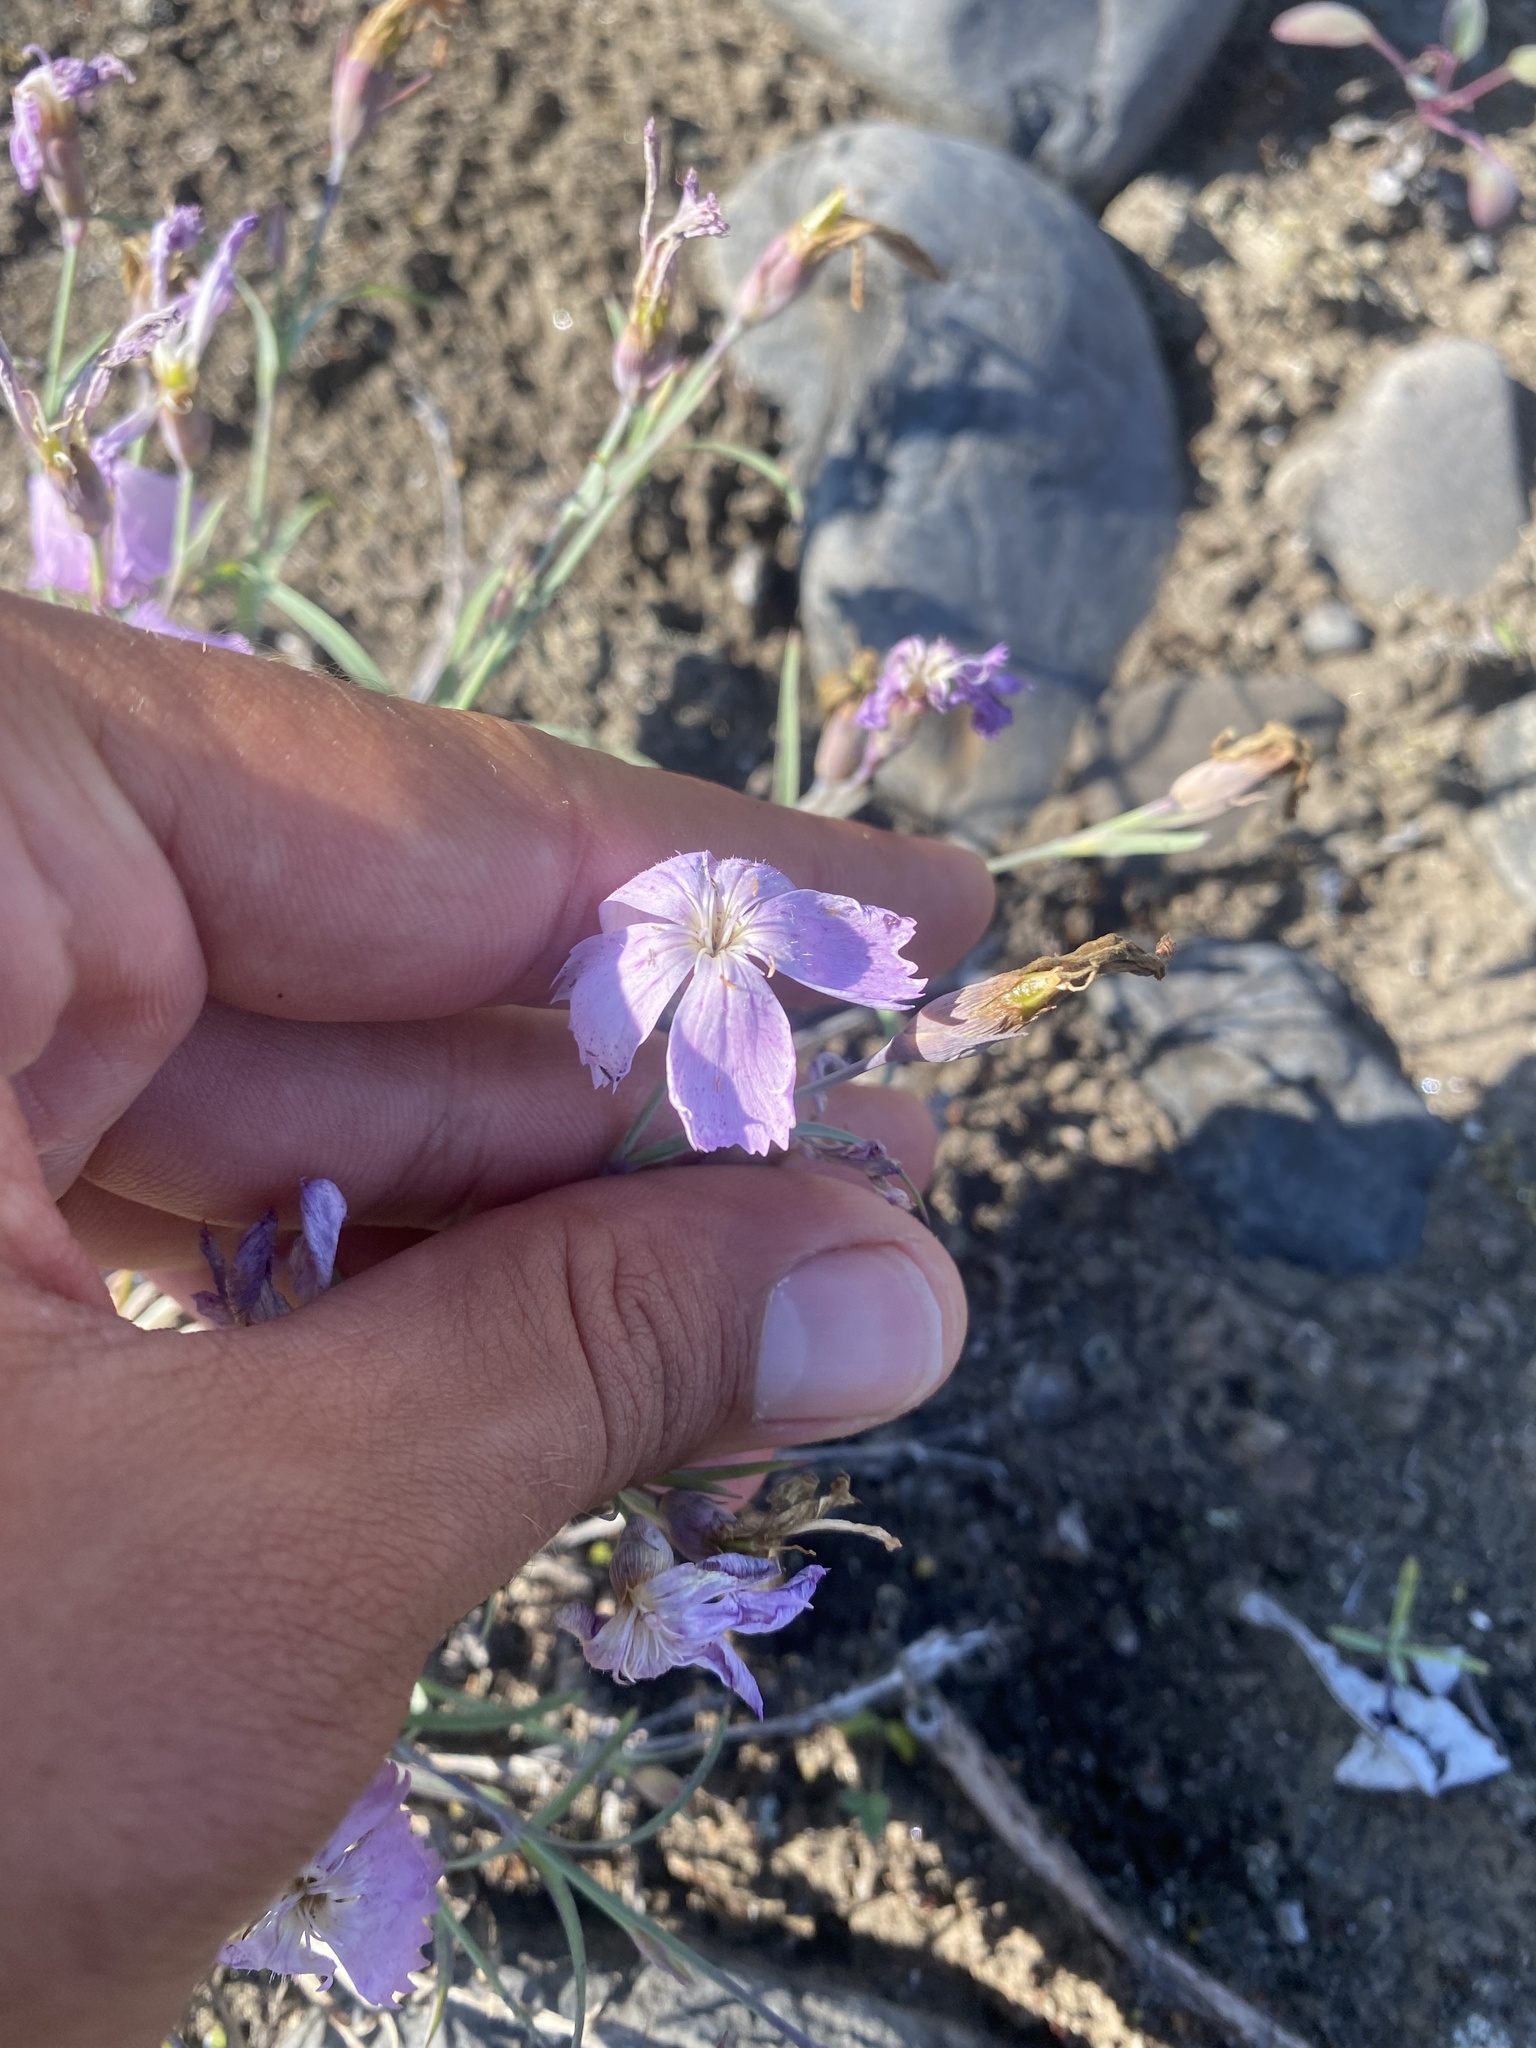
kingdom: Plantae
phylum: Tracheophyta
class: Magnoliopsida
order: Caryophyllales
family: Caryophyllaceae
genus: Dianthus
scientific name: Dianthus repens
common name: Northern pink
